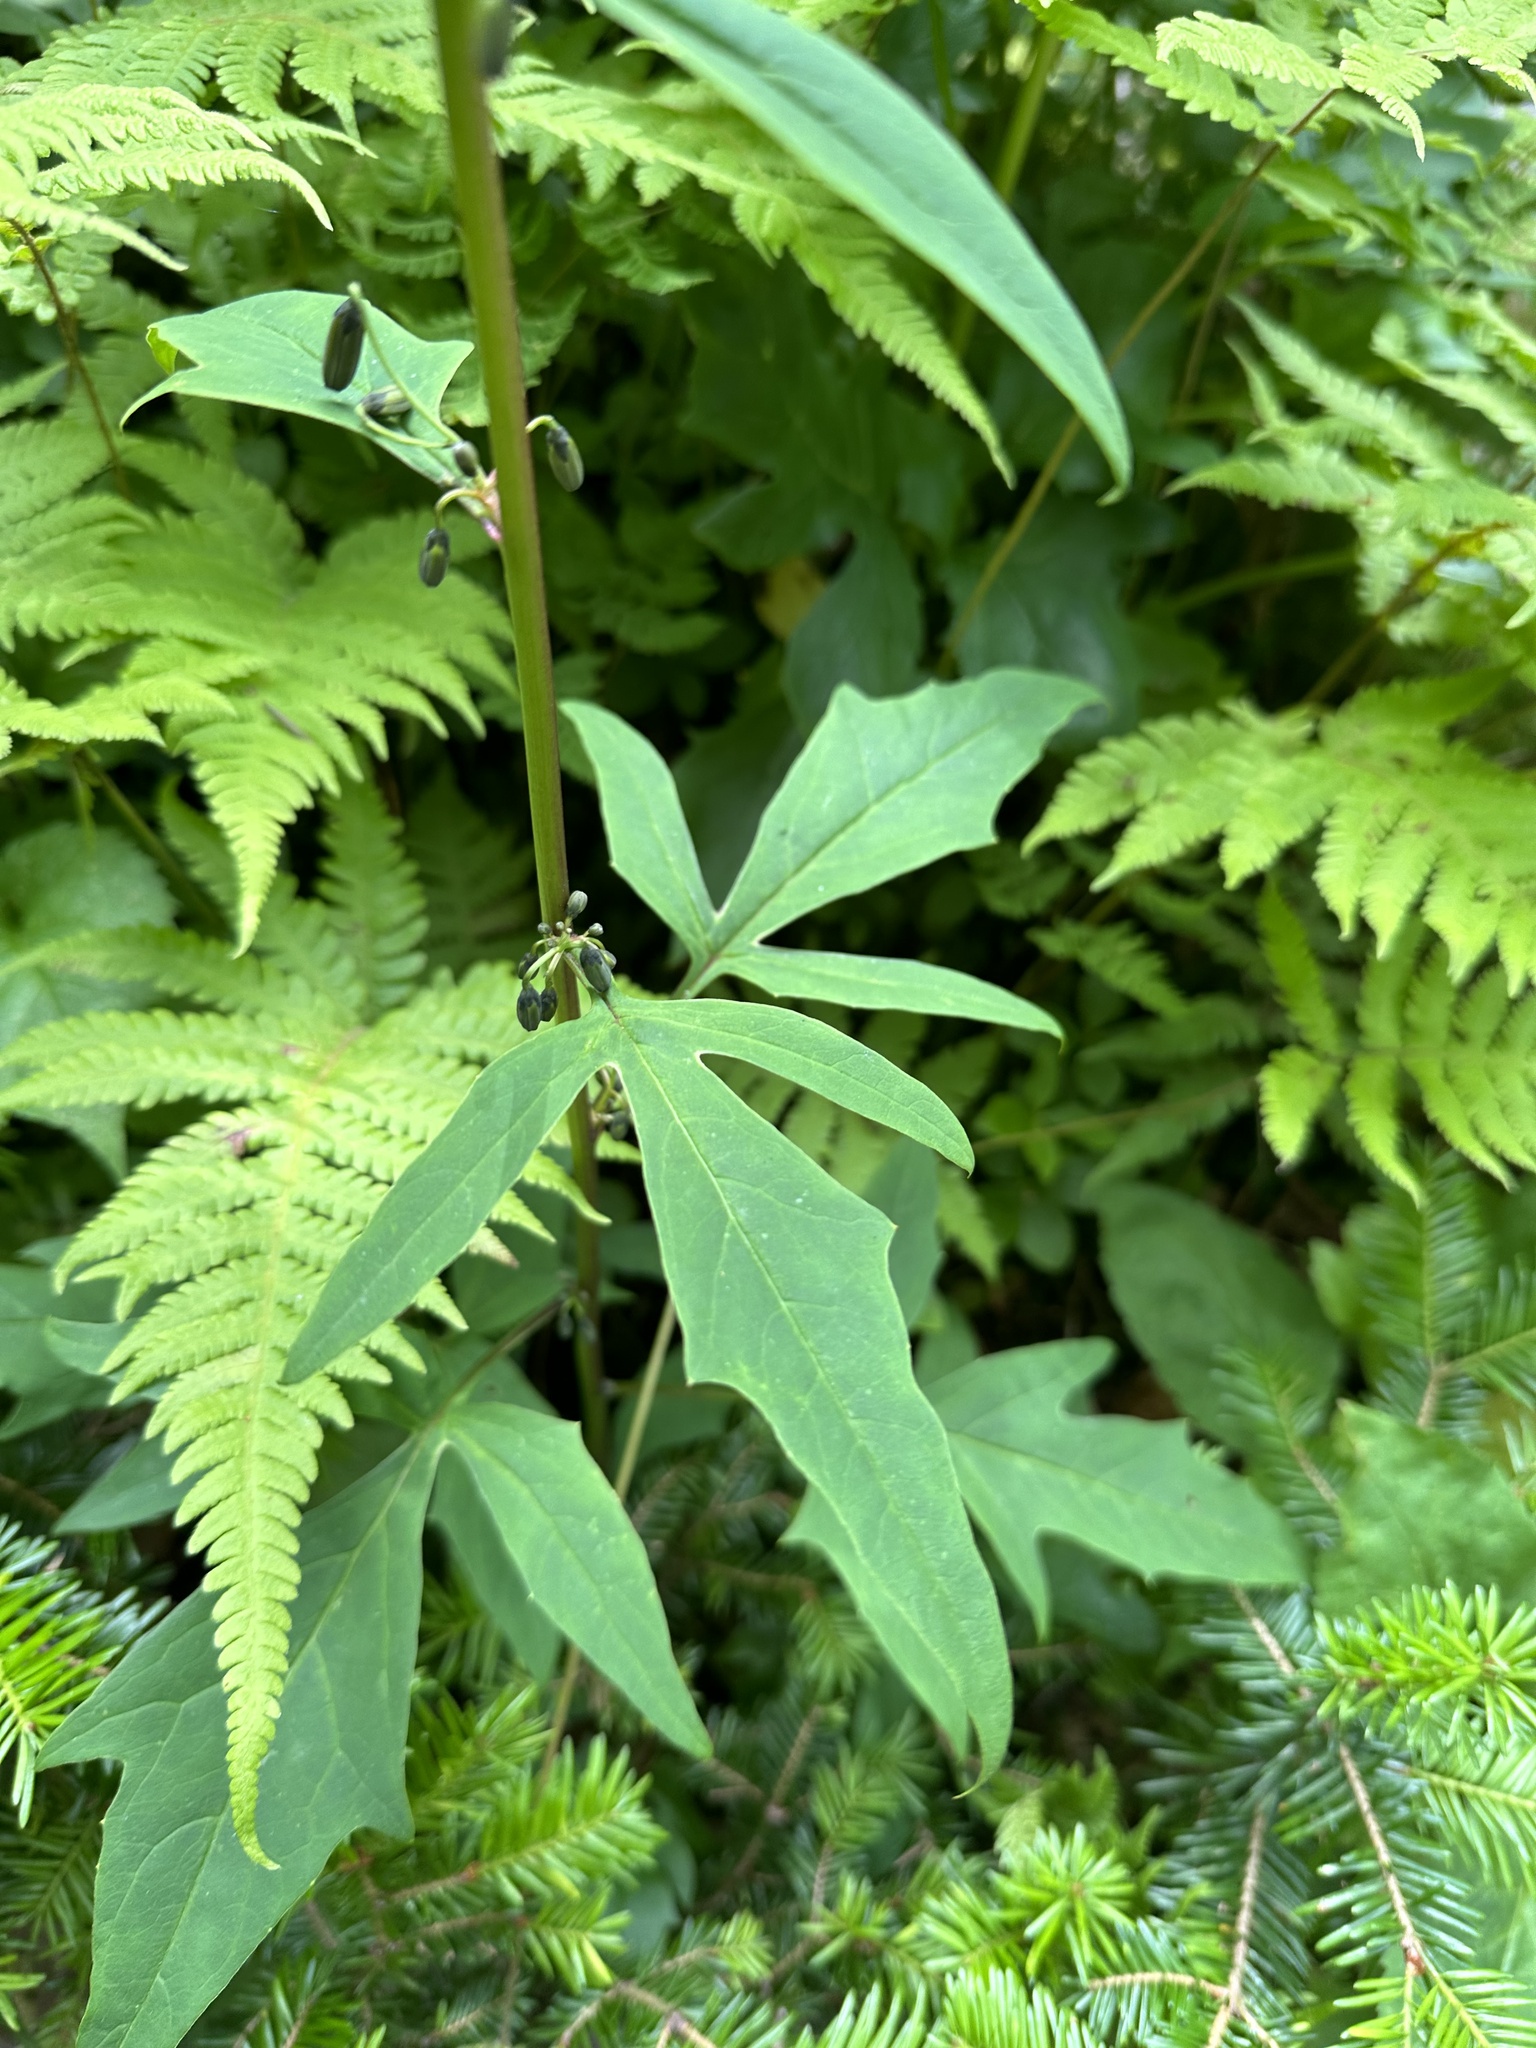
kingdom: Plantae
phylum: Tracheophyta
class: Magnoliopsida
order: Asterales
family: Asteraceae
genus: Nabalus
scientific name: Nabalus trifoliolatus
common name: Gall-of-the-earth
